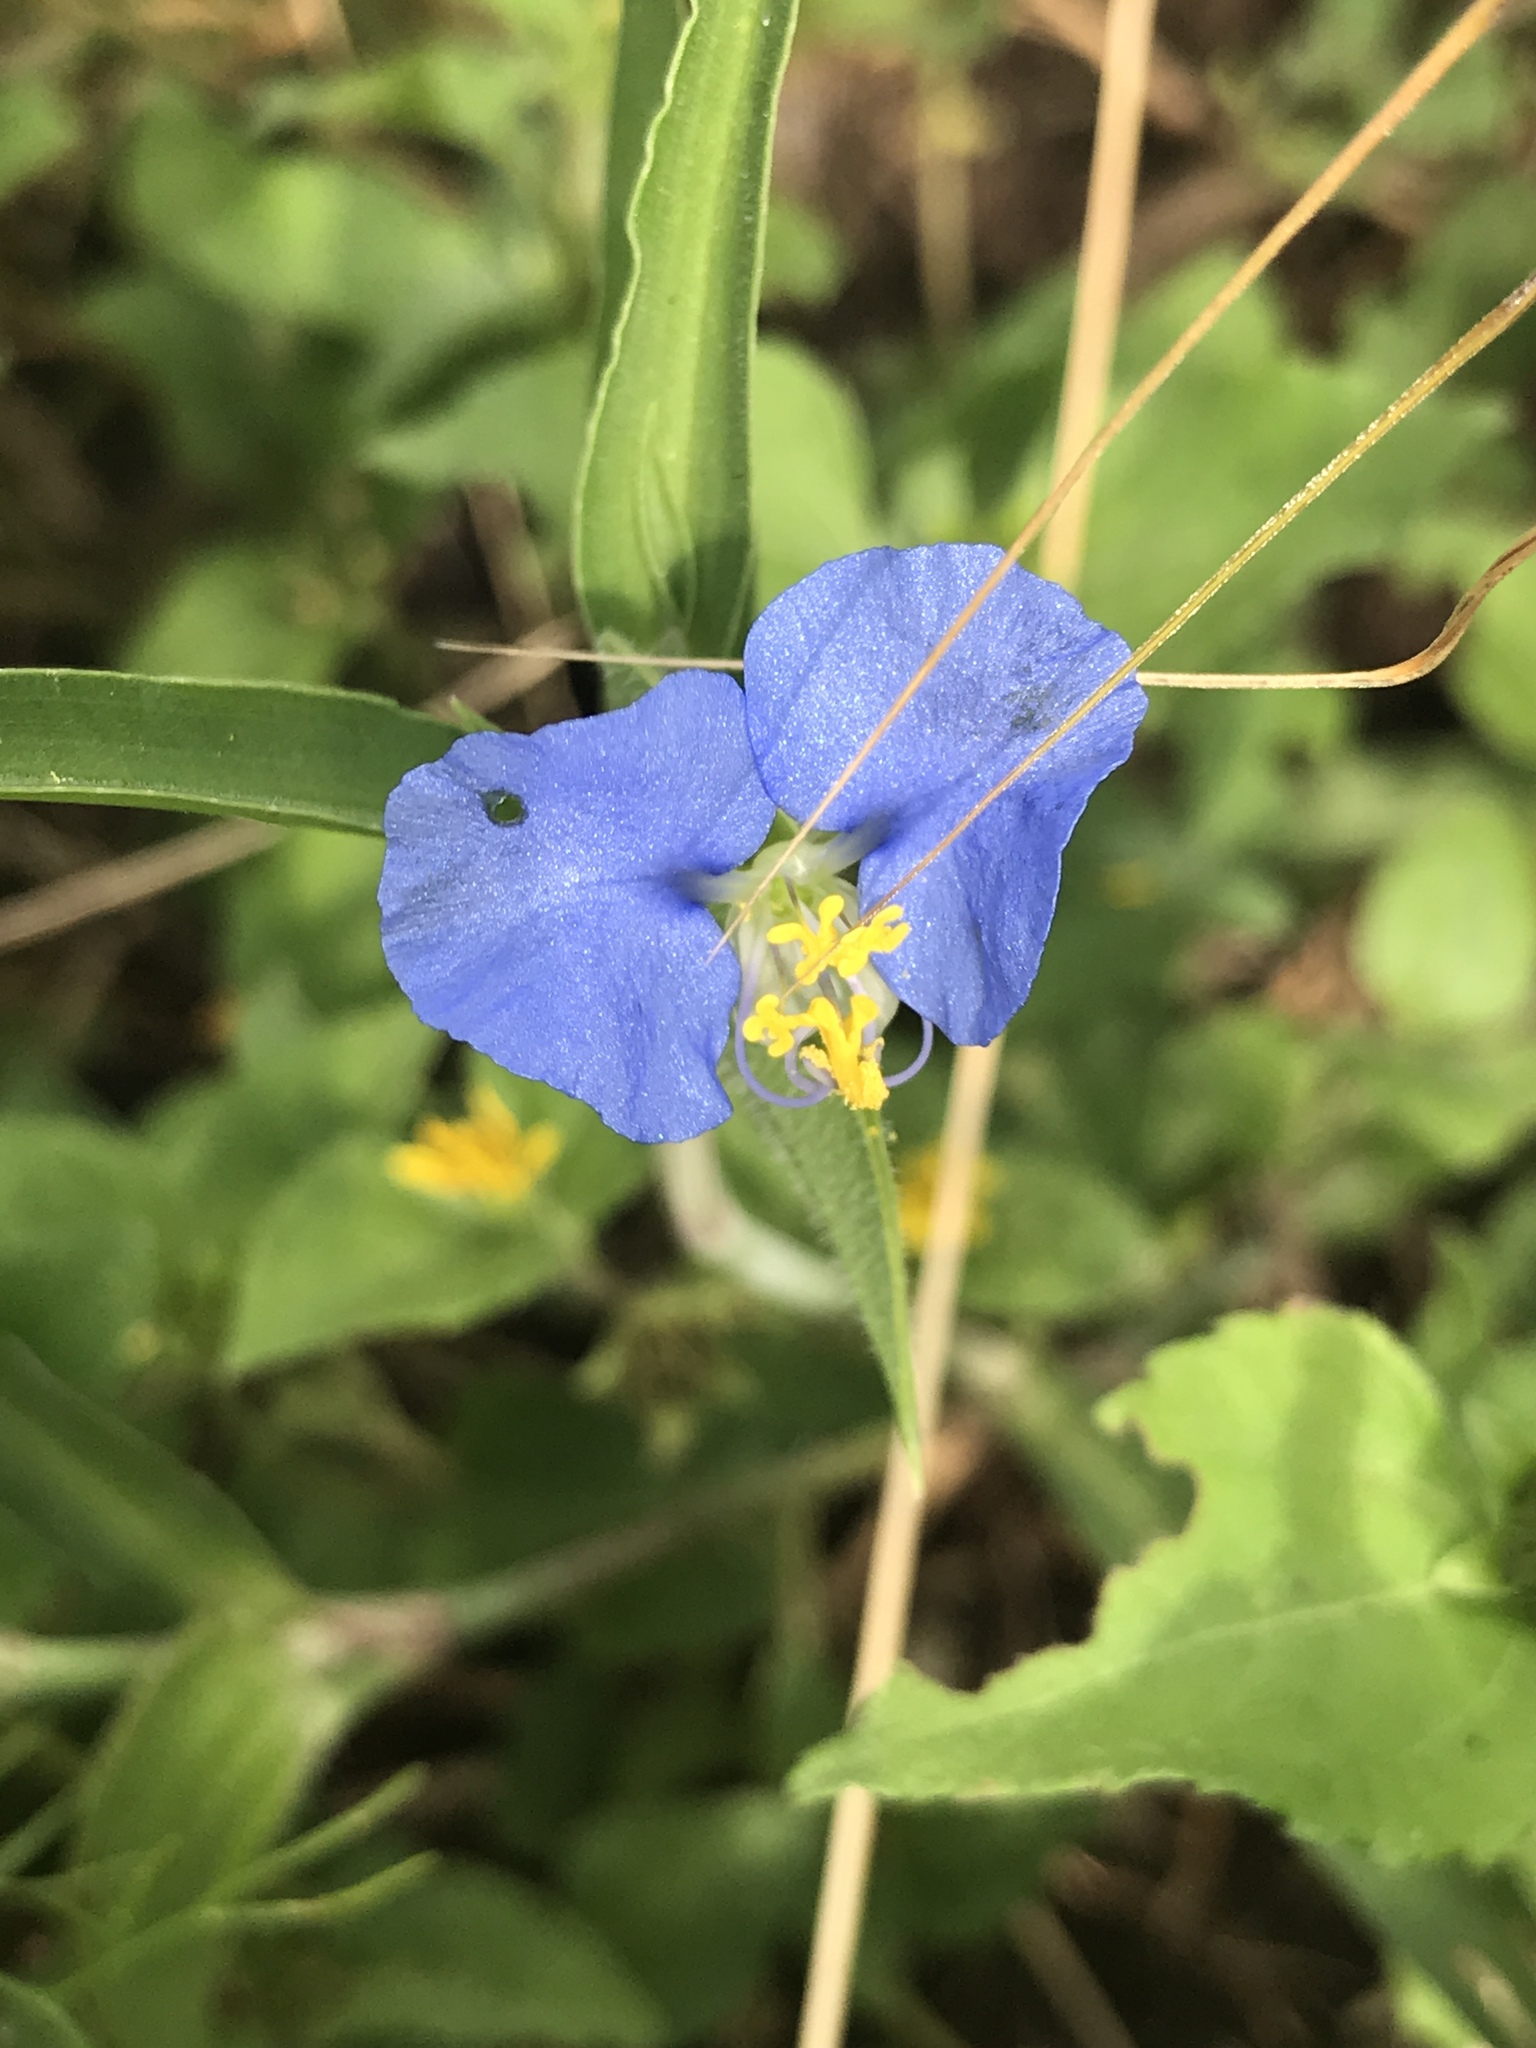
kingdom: Plantae
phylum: Tracheophyta
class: Liliopsida
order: Commelinales
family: Commelinaceae
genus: Commelina
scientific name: Commelina erecta
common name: Blousel blommetjie
